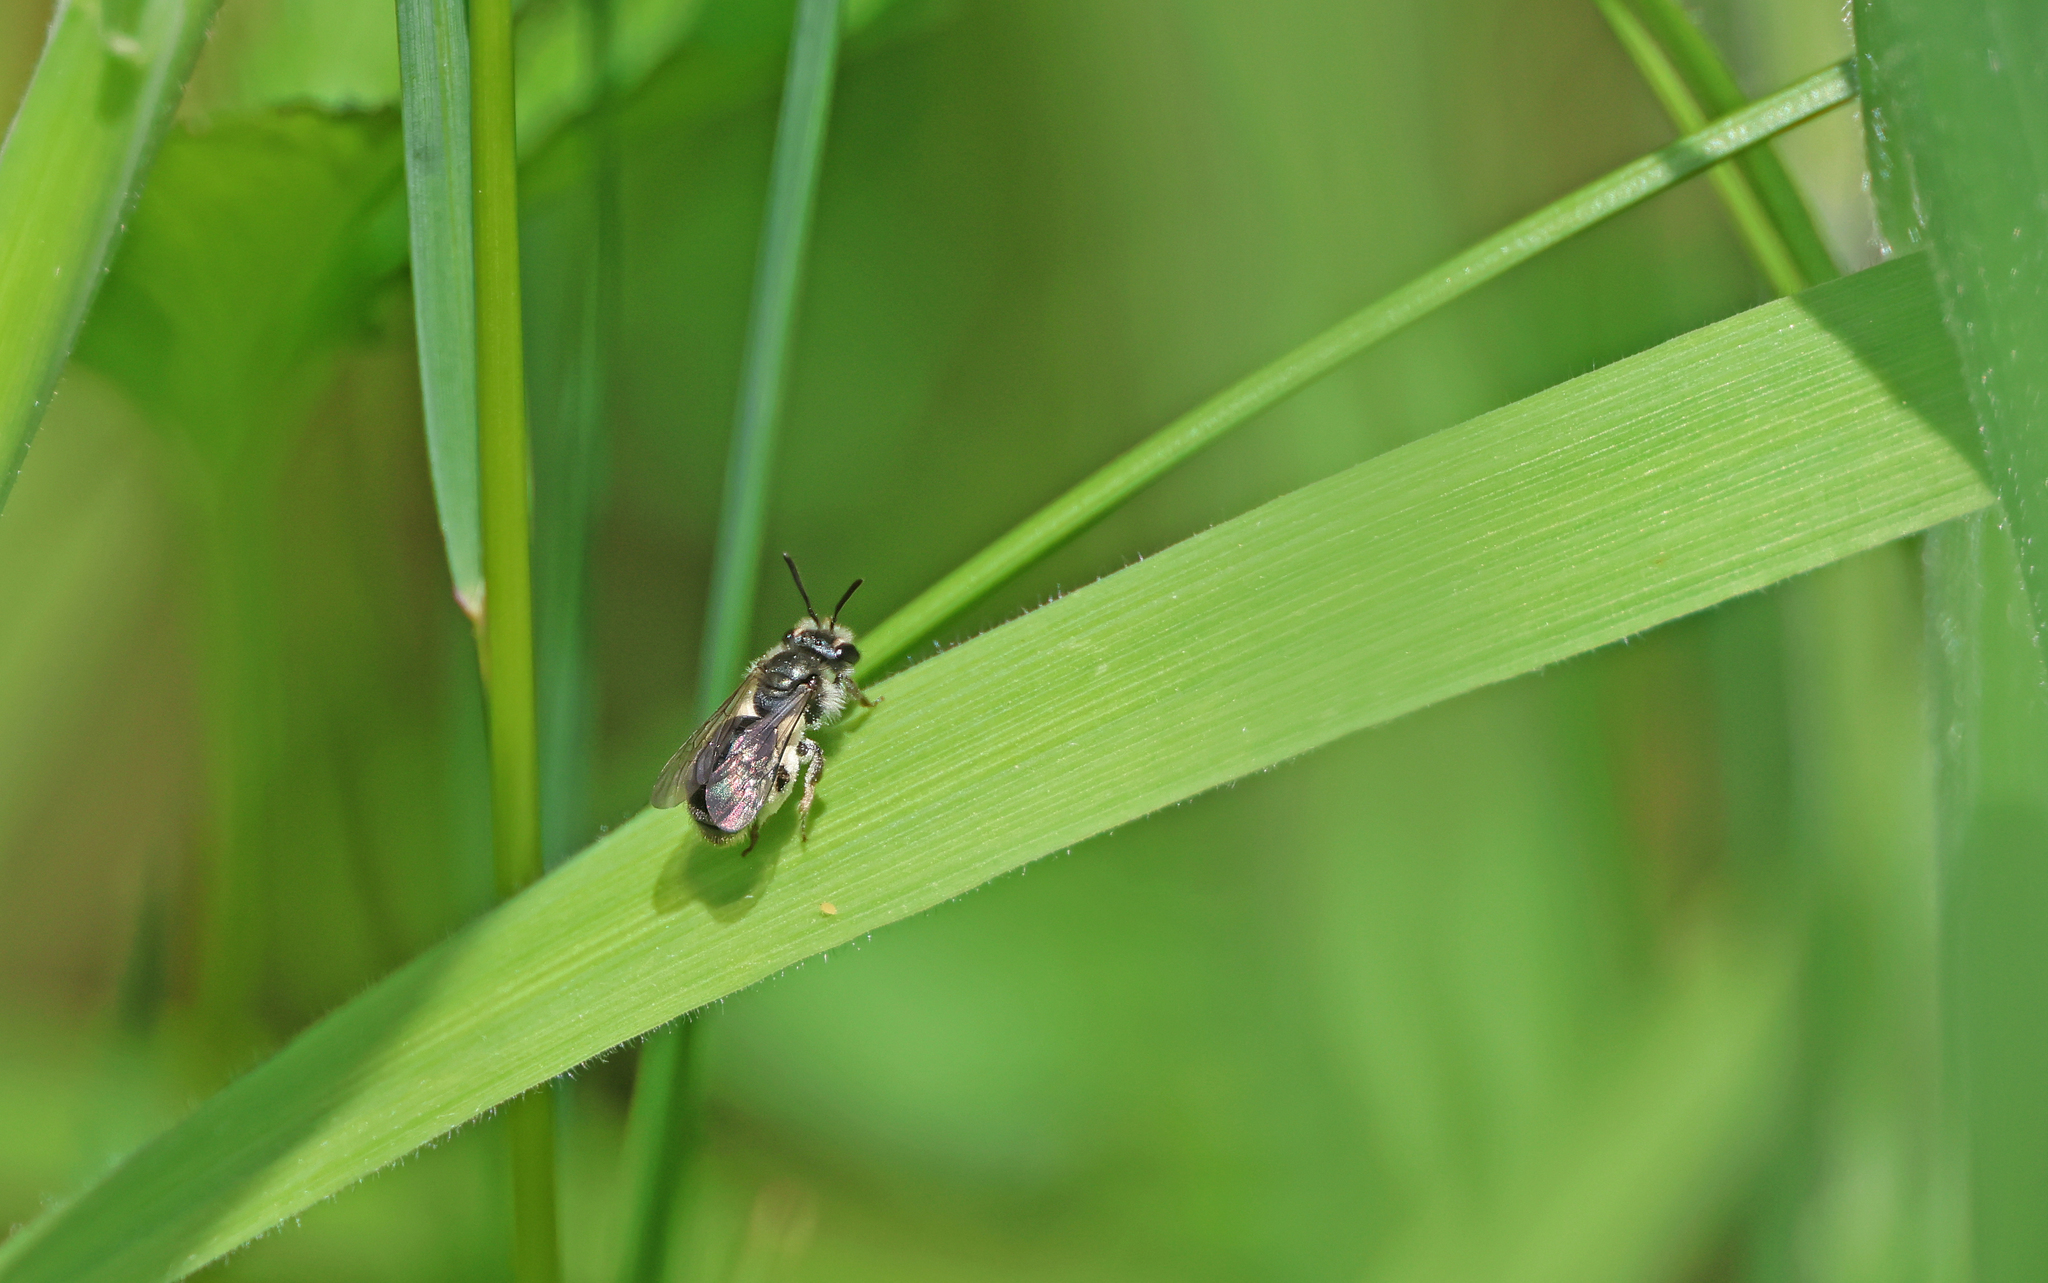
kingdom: Animalia
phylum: Arthropoda
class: Insecta
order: Hymenoptera
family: Andrenidae
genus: Andrena
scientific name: Andrena viridescens
